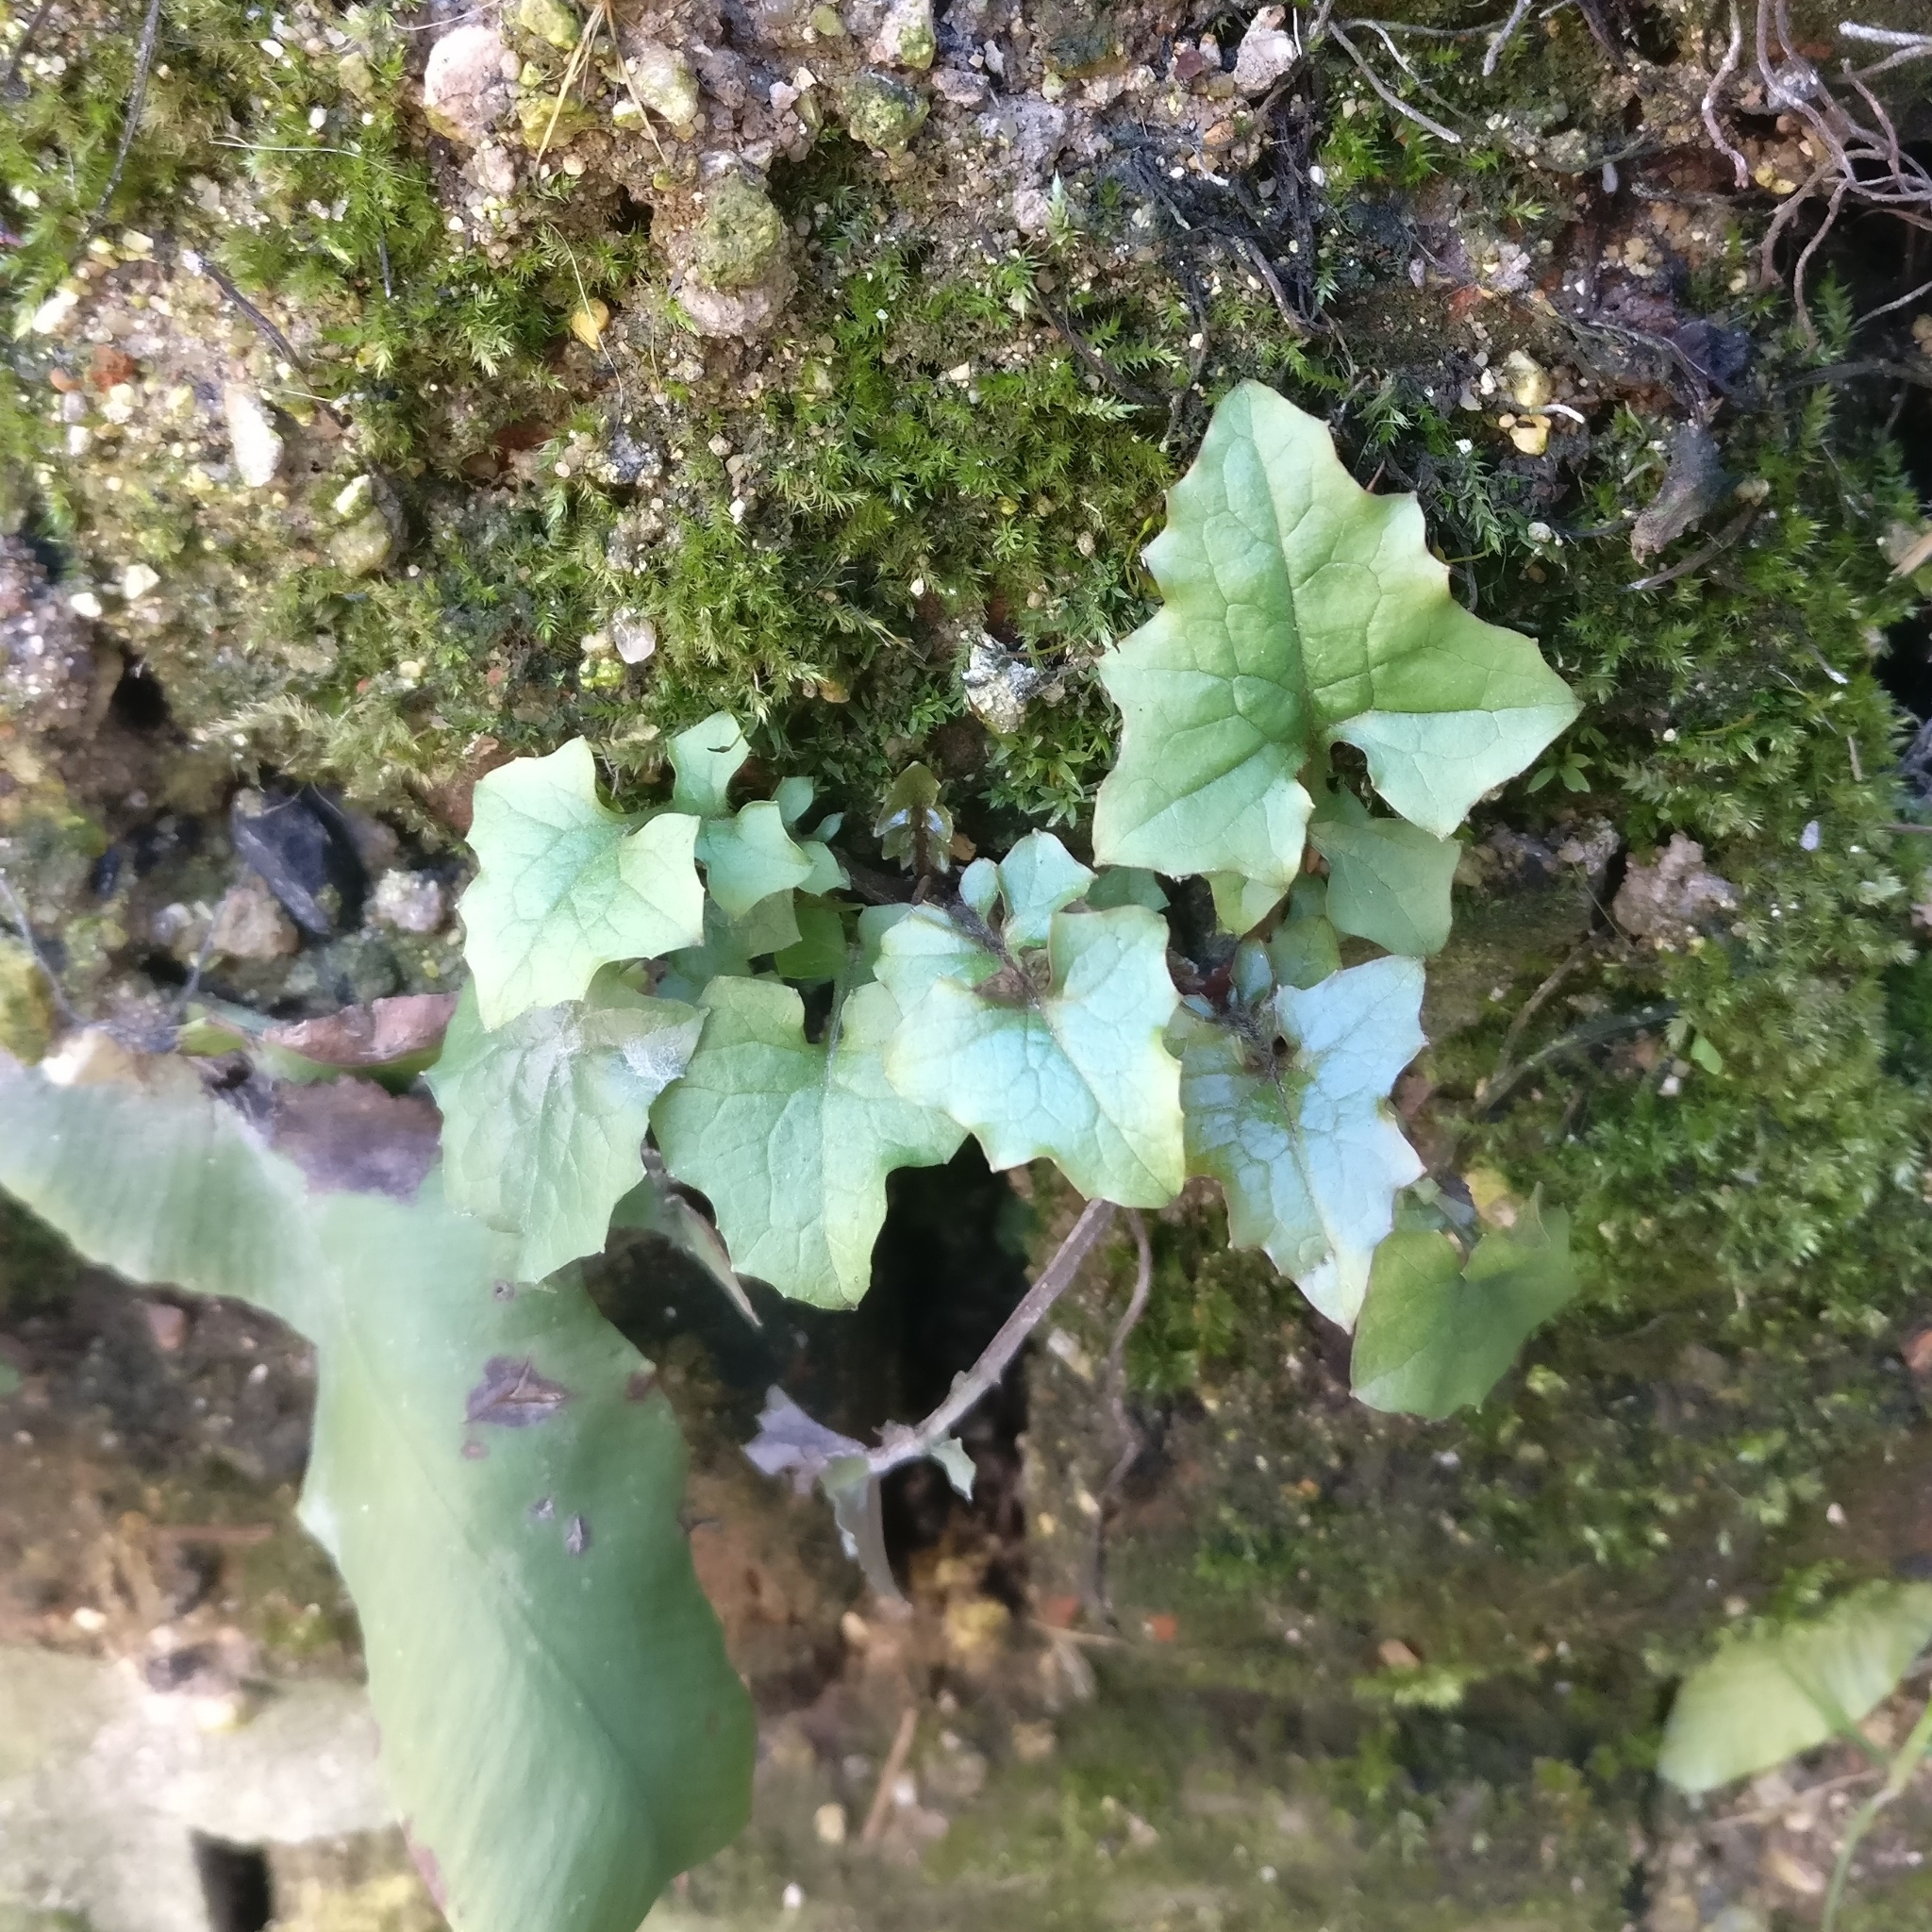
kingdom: Plantae
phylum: Tracheophyta
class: Magnoliopsida
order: Asterales
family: Asteraceae
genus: Mycelis
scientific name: Mycelis muralis
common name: Wall lettuce
